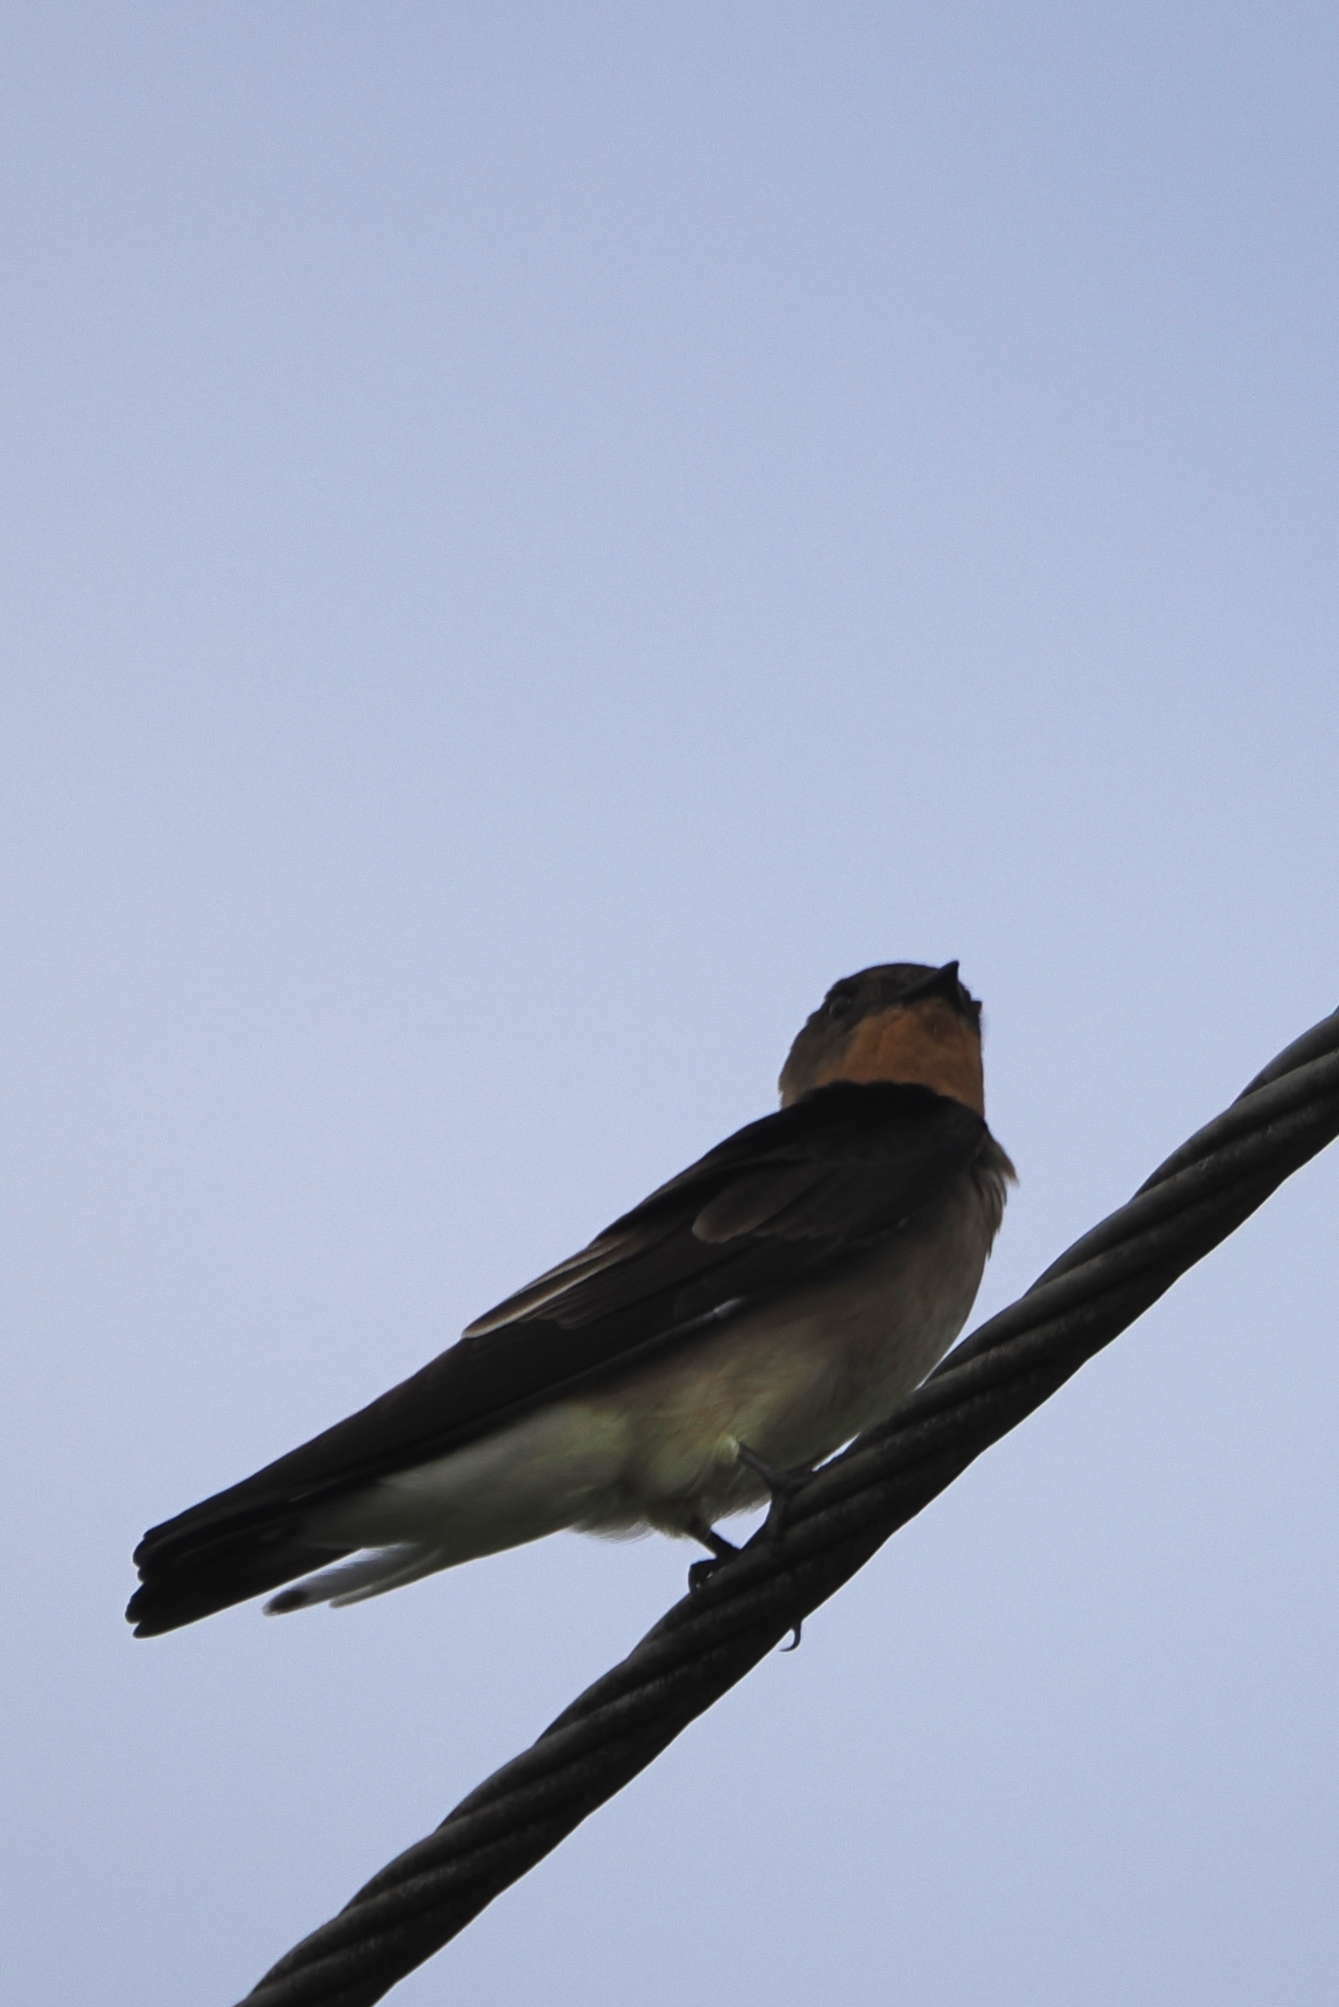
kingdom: Animalia
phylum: Chordata
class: Aves
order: Passeriformes
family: Hirundinidae
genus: Stelgidopteryx
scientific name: Stelgidopteryx ruficollis
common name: Southern rough-winged swallow
